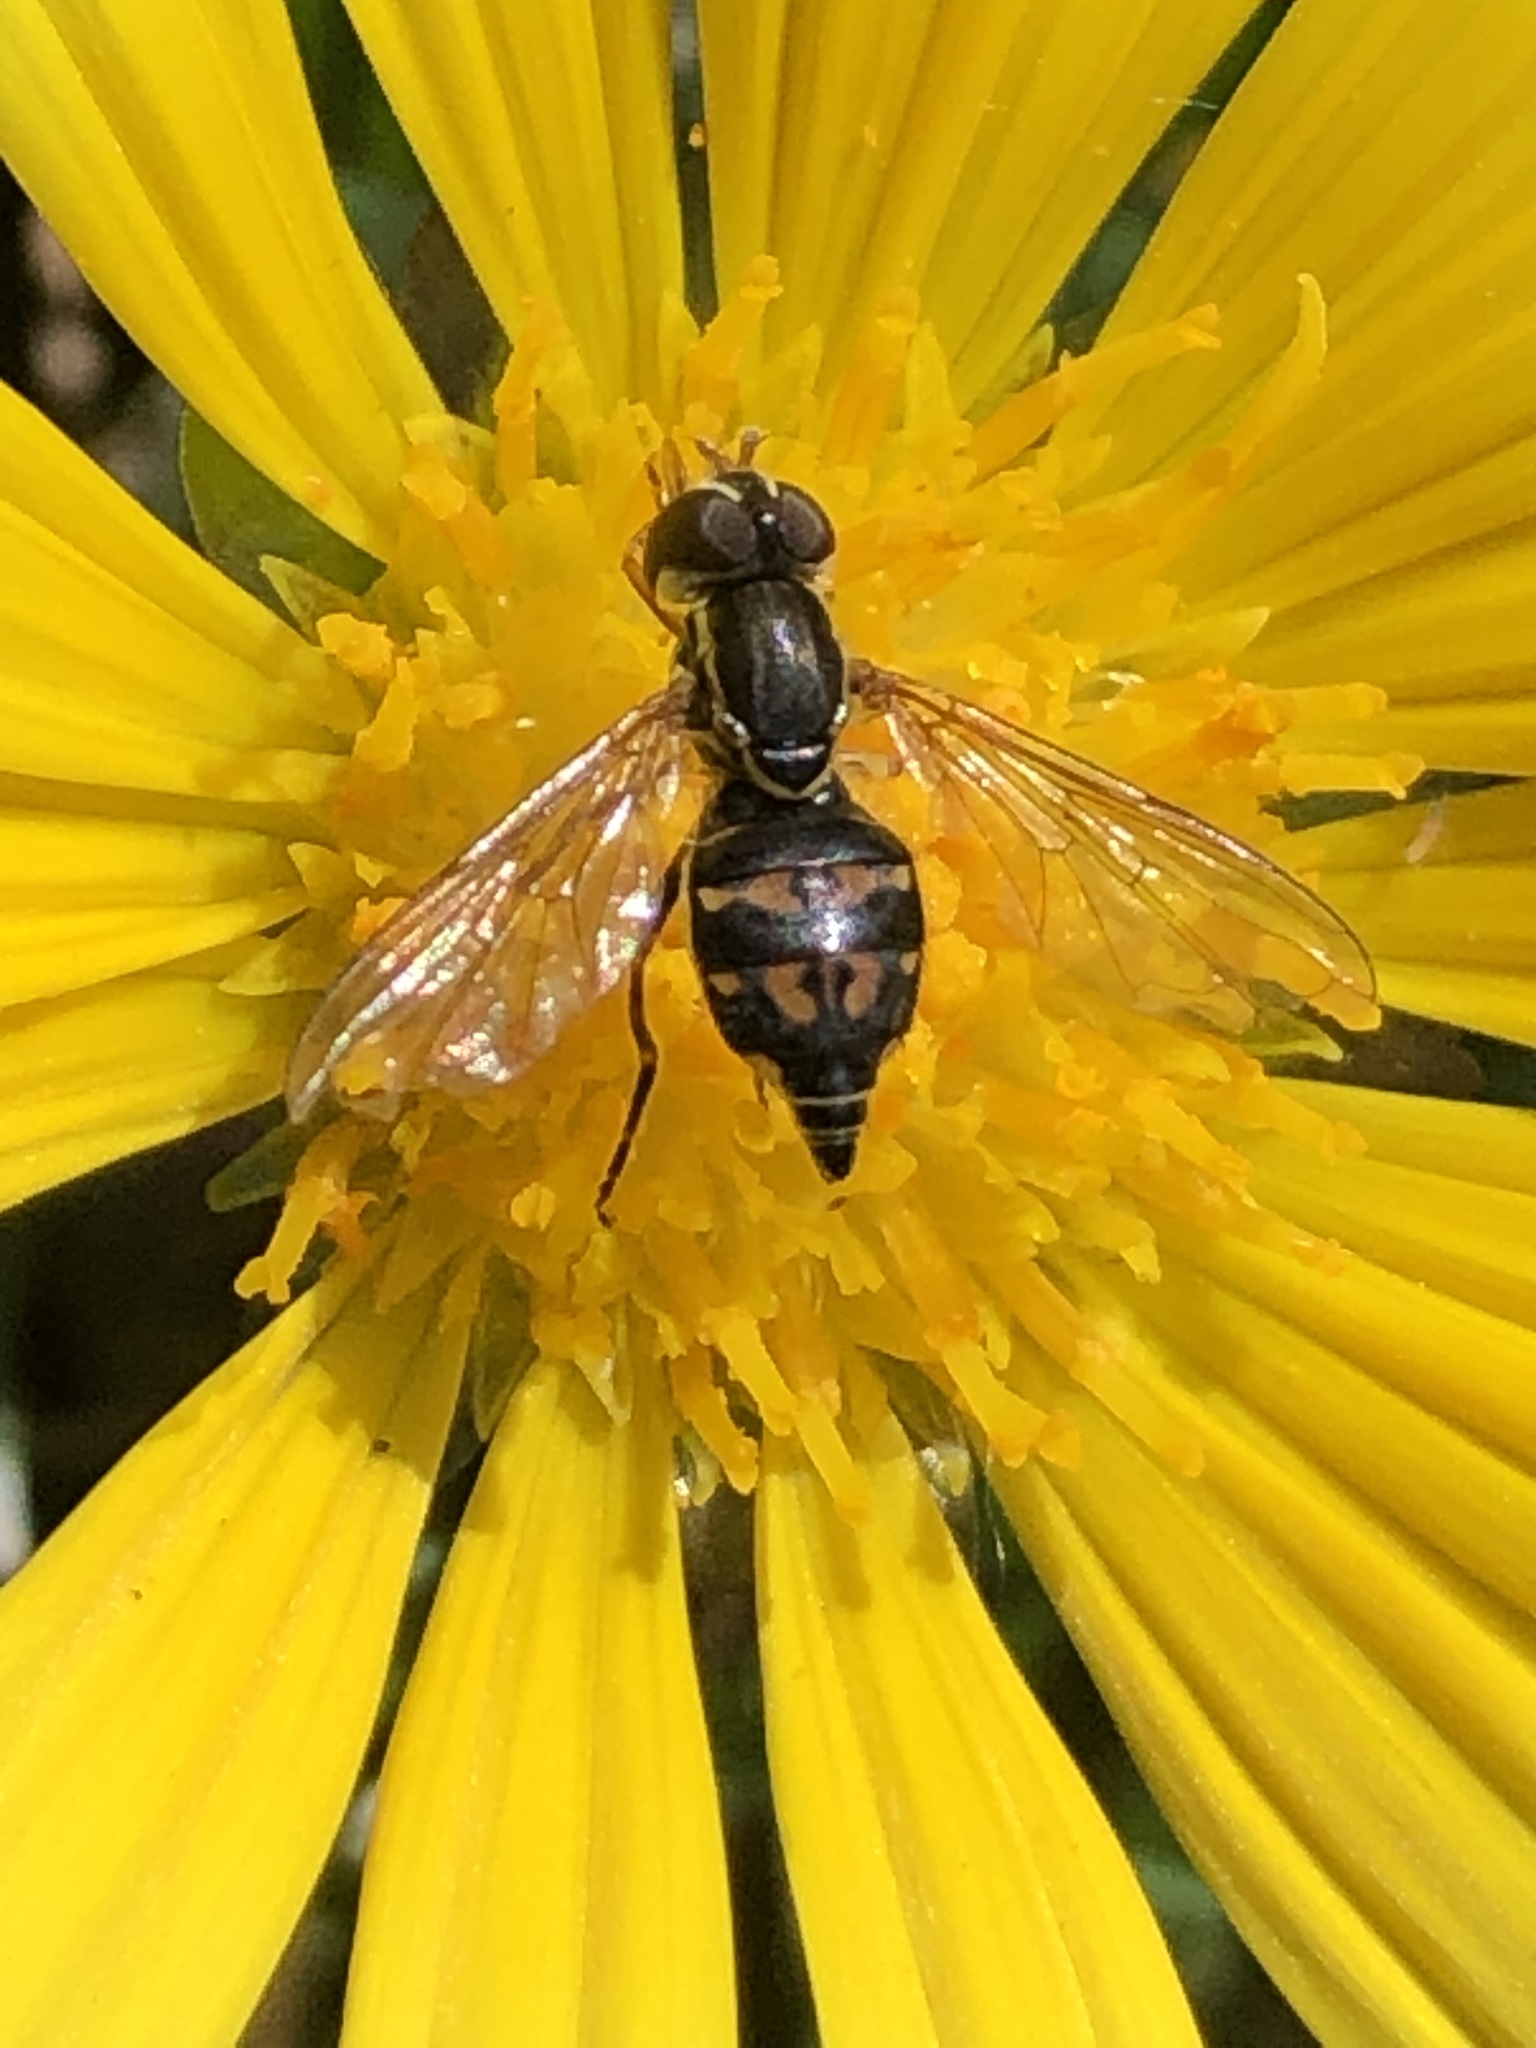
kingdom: Animalia
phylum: Arthropoda
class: Insecta
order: Diptera
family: Syrphidae
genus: Toxomerus
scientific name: Toxomerus occidentalis
